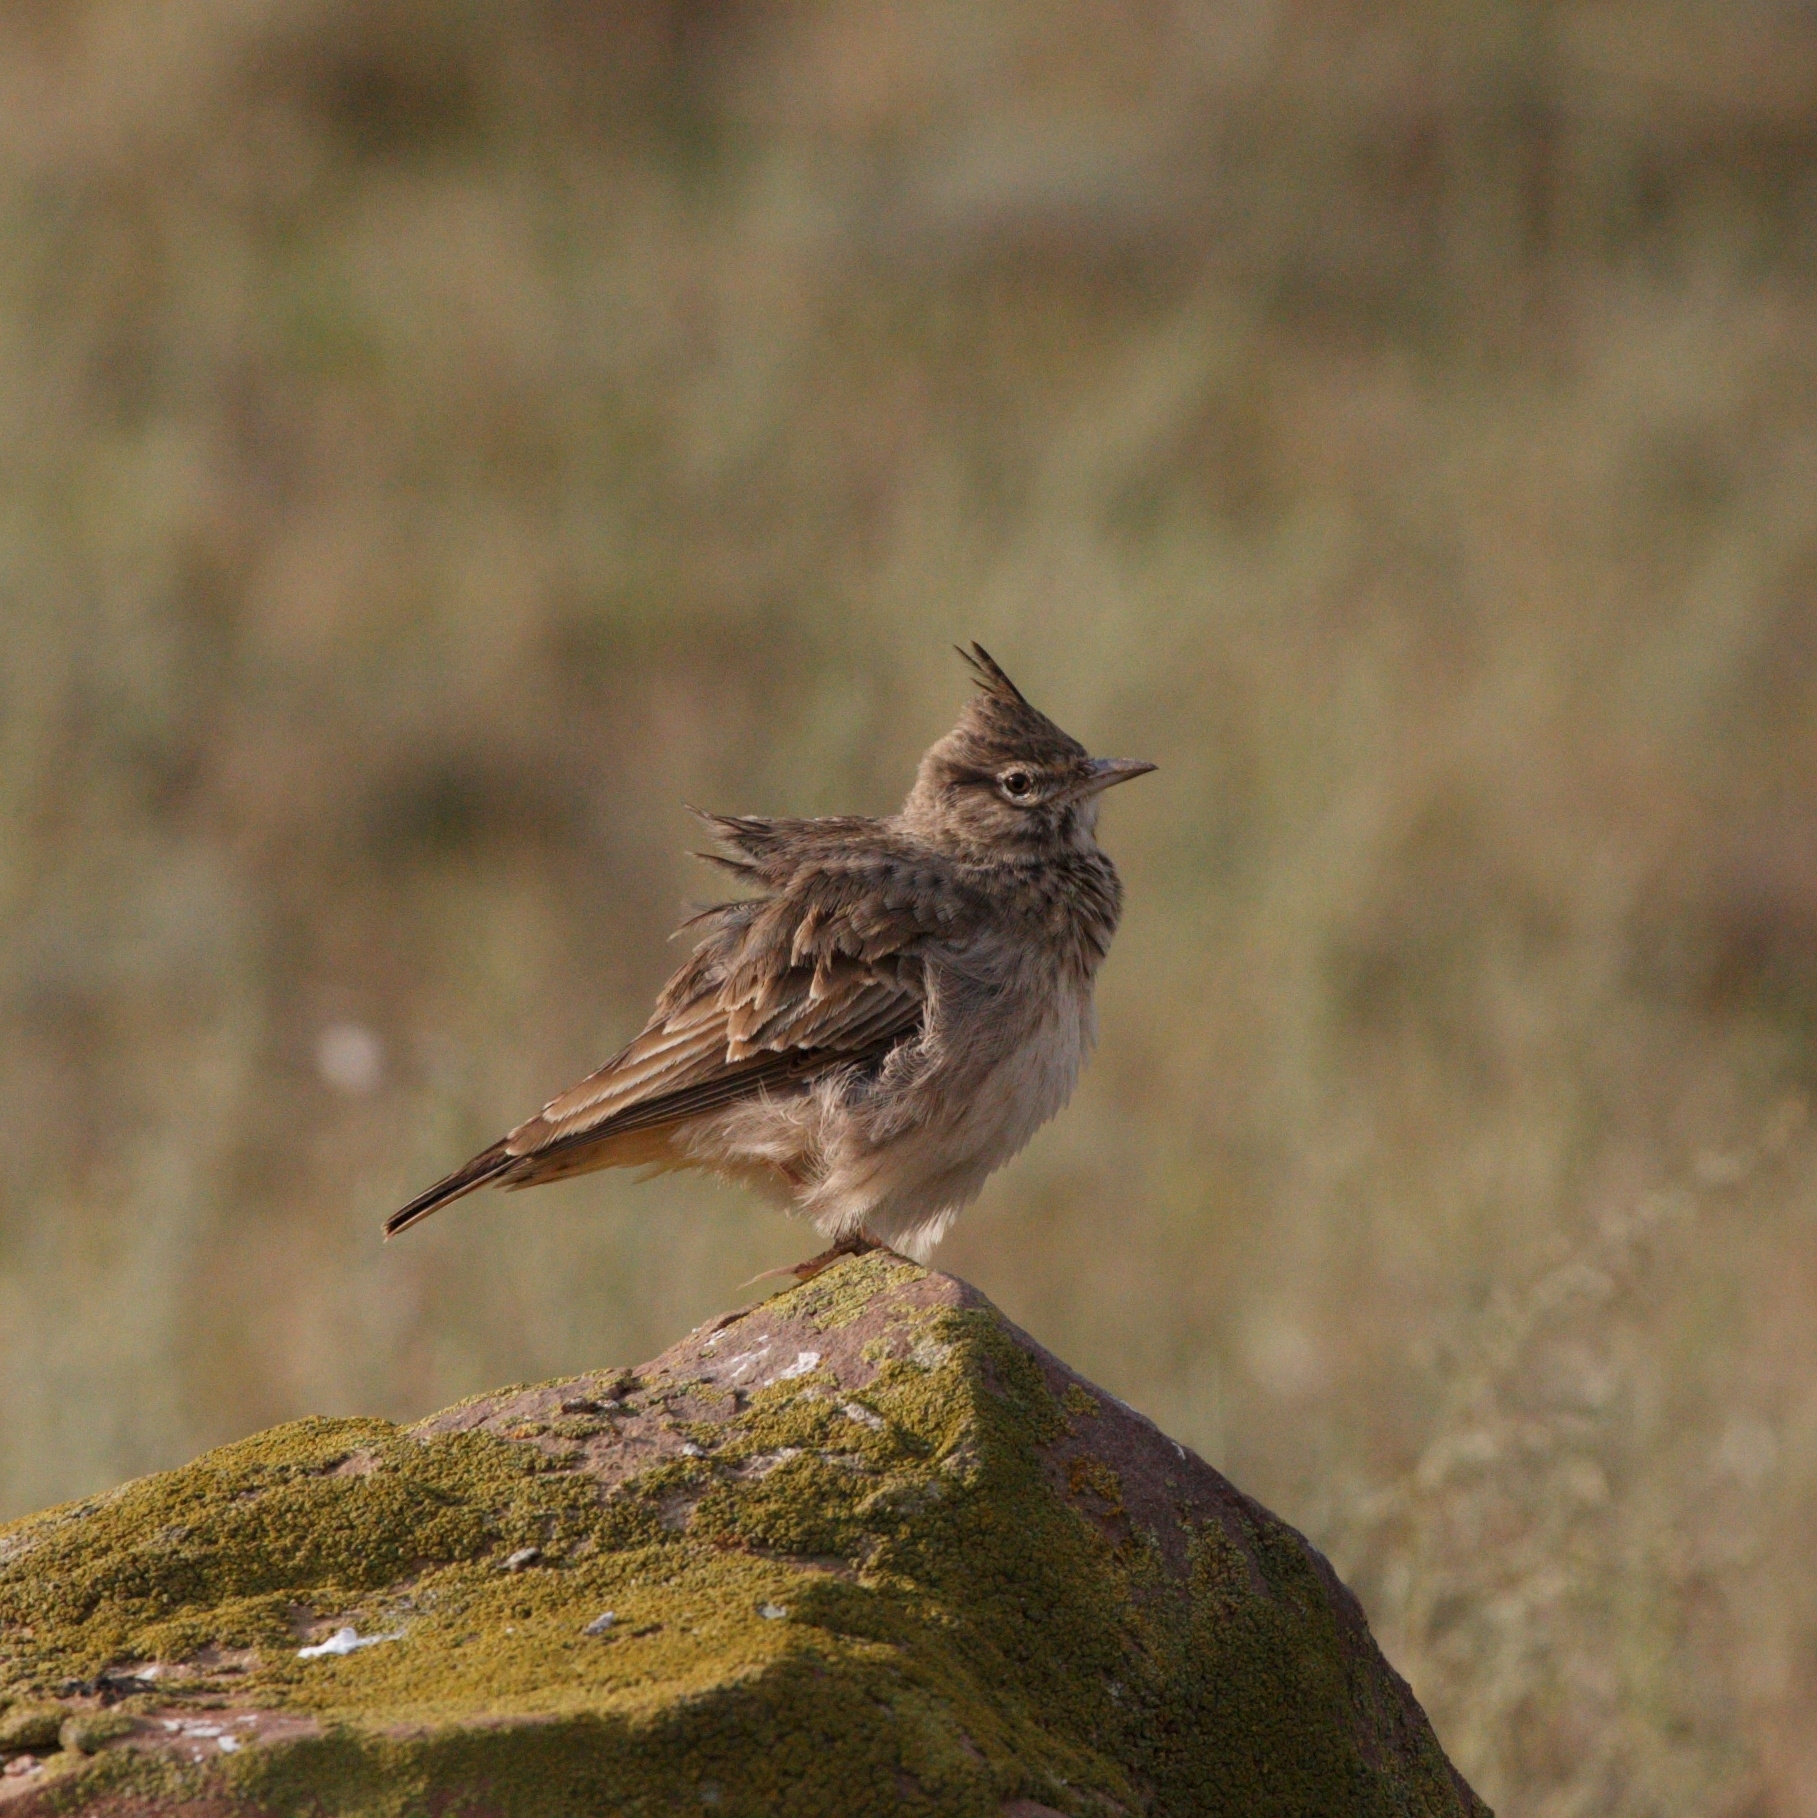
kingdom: Animalia
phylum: Chordata
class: Aves
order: Passeriformes
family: Alaudidae
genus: Galerida
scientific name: Galerida cristata
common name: Crested lark
